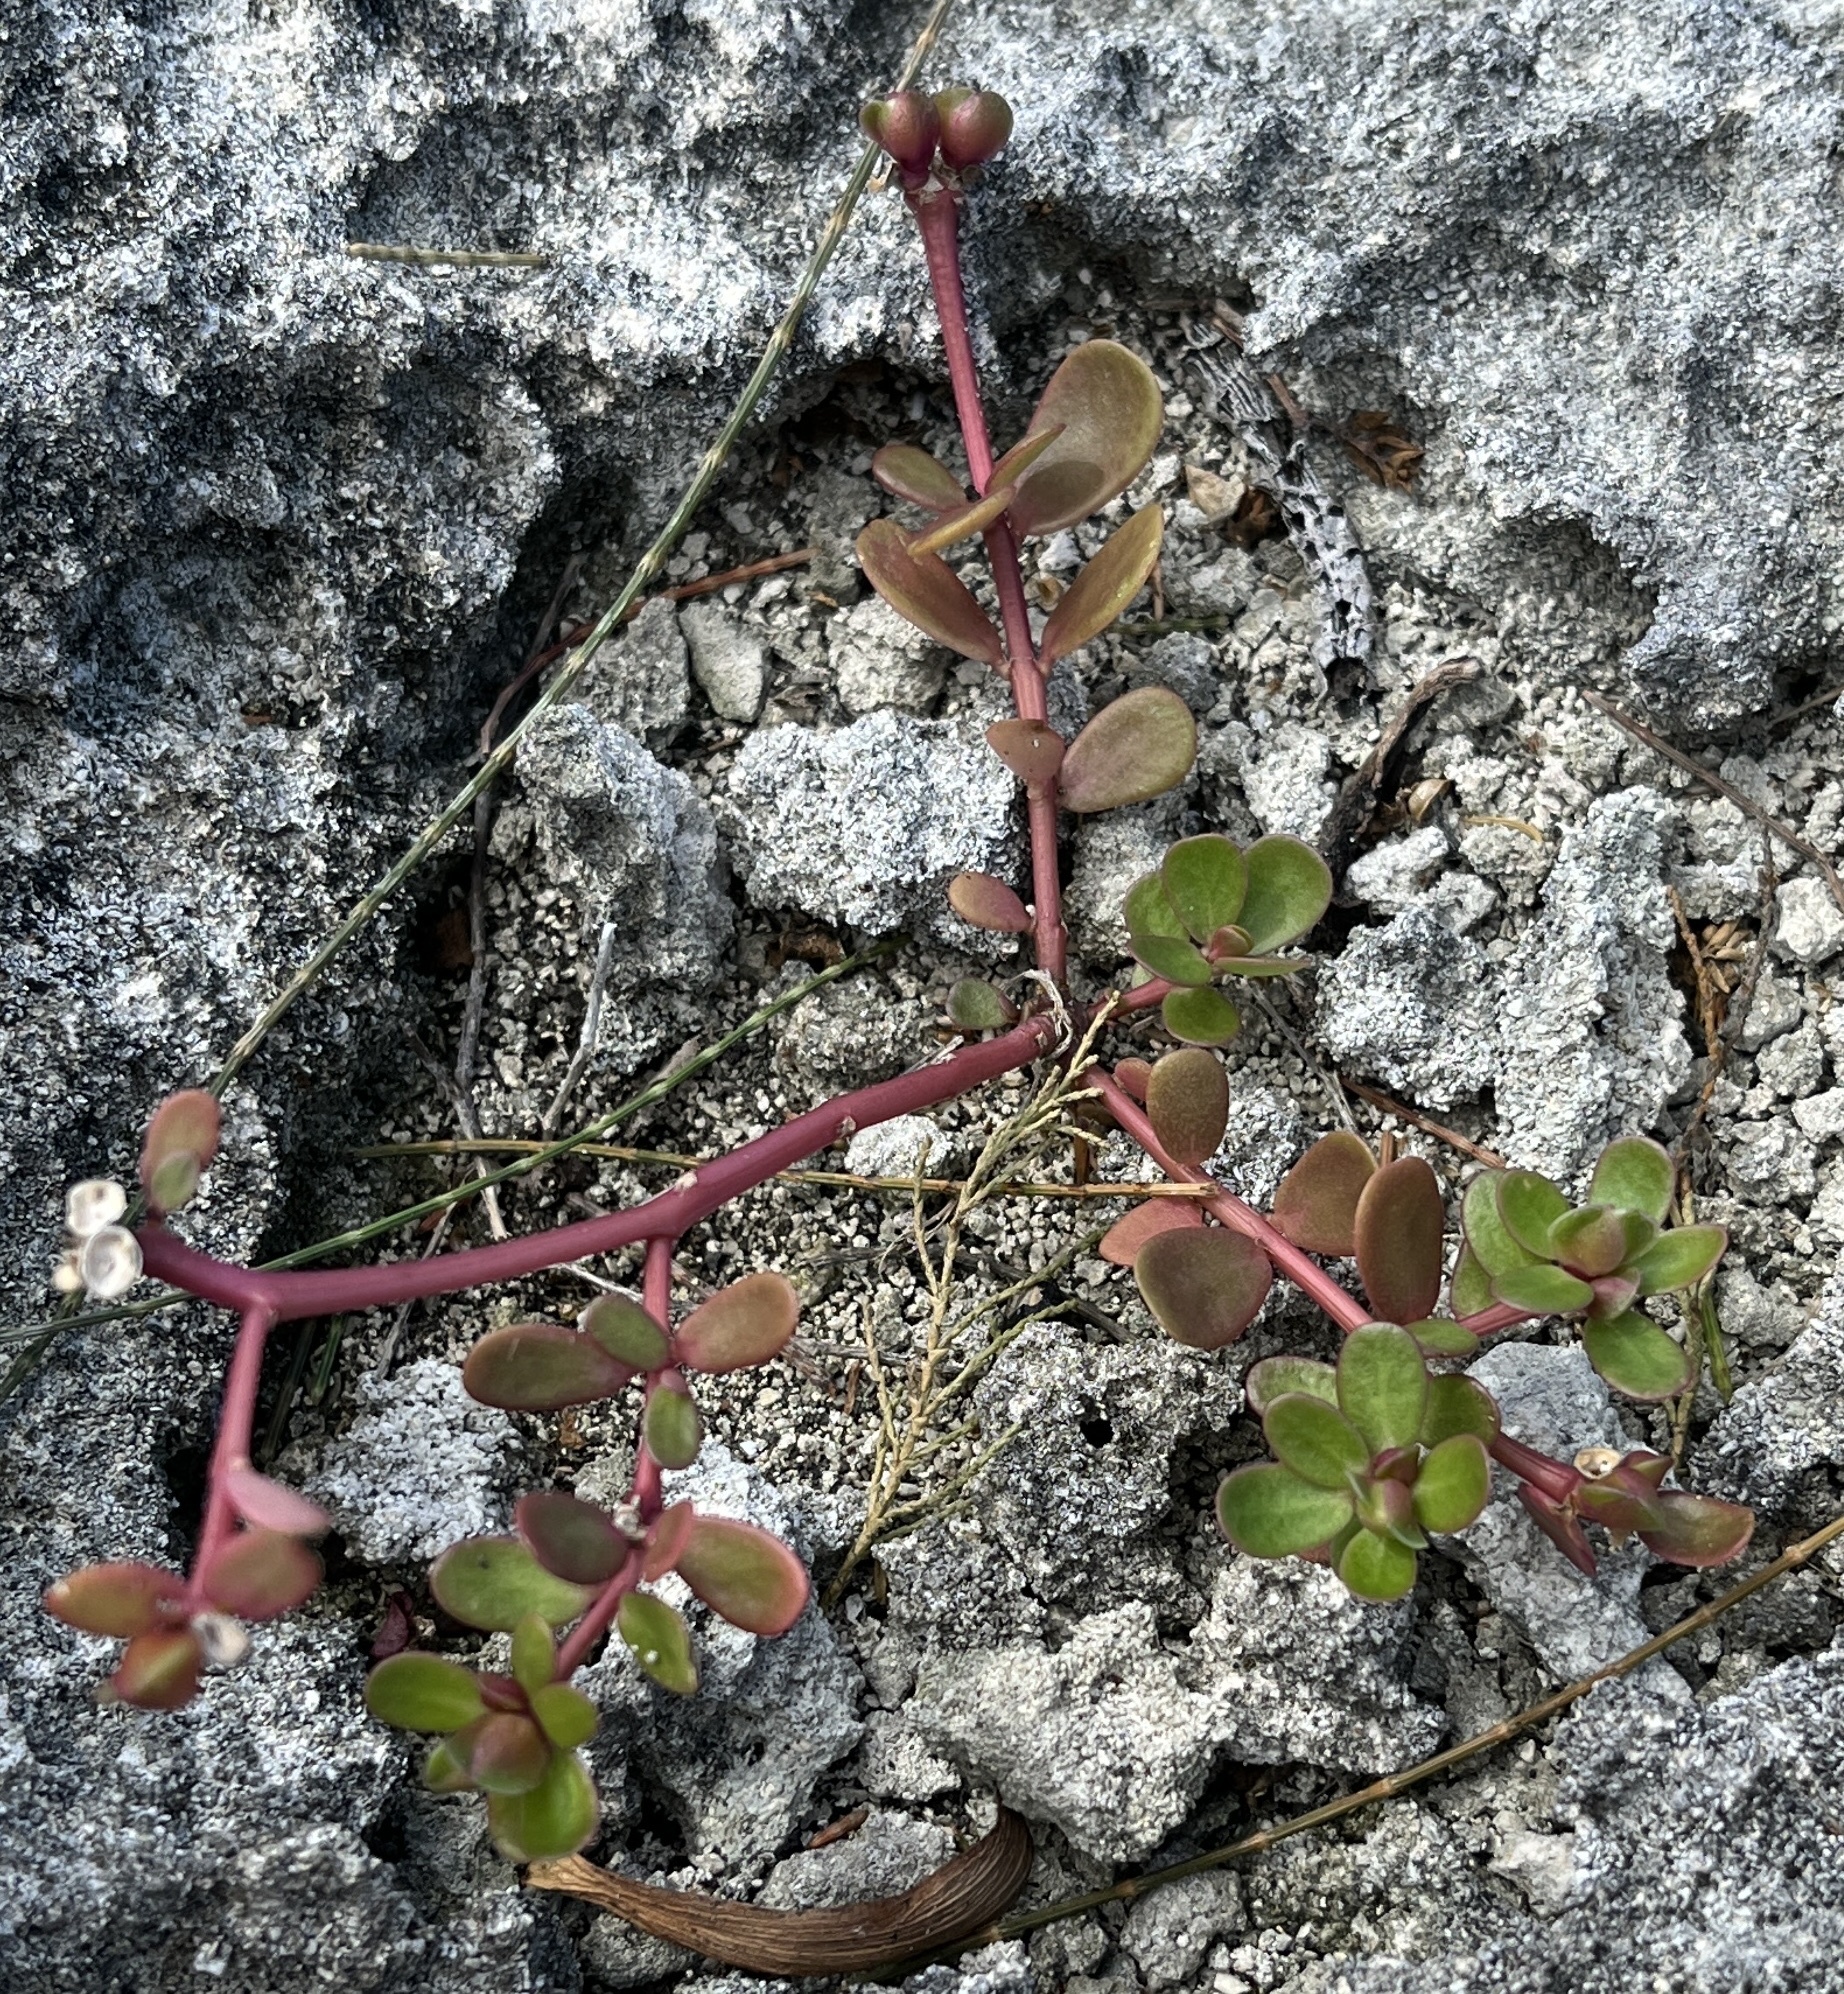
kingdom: Plantae
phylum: Tracheophyta
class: Magnoliopsida
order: Caryophyllales
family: Portulacaceae
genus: Portulaca
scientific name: Portulaca oleracea
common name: Common purslane
